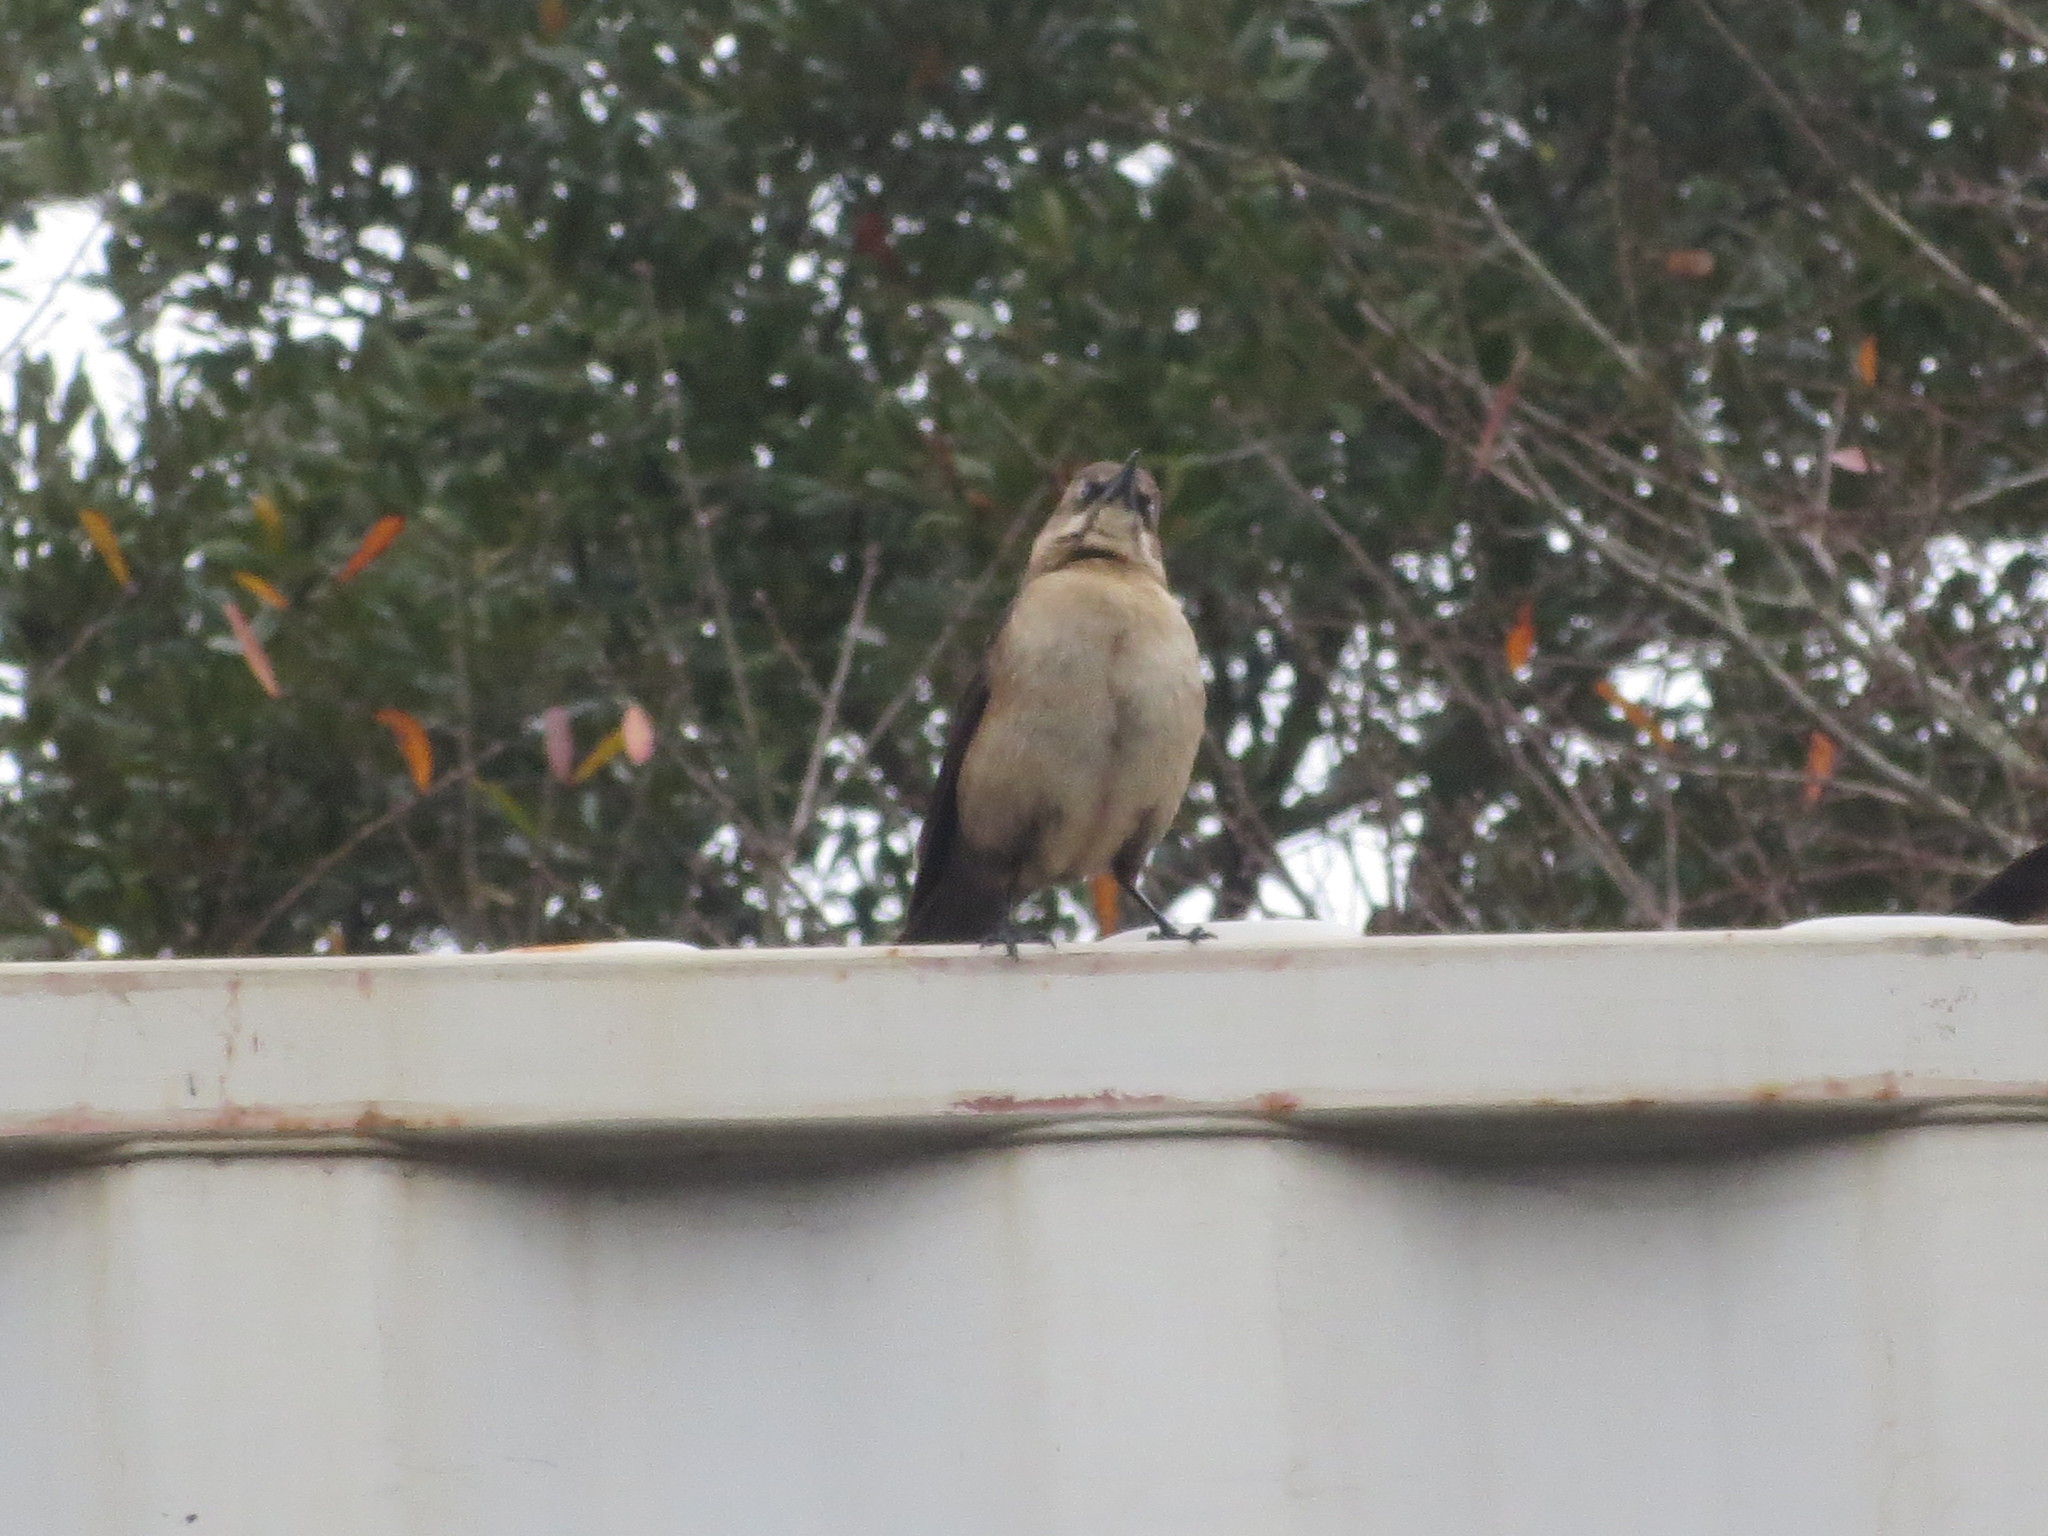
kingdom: Animalia
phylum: Chordata
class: Aves
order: Passeriformes
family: Icteridae
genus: Quiscalus
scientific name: Quiscalus major
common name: Boat-tailed grackle
